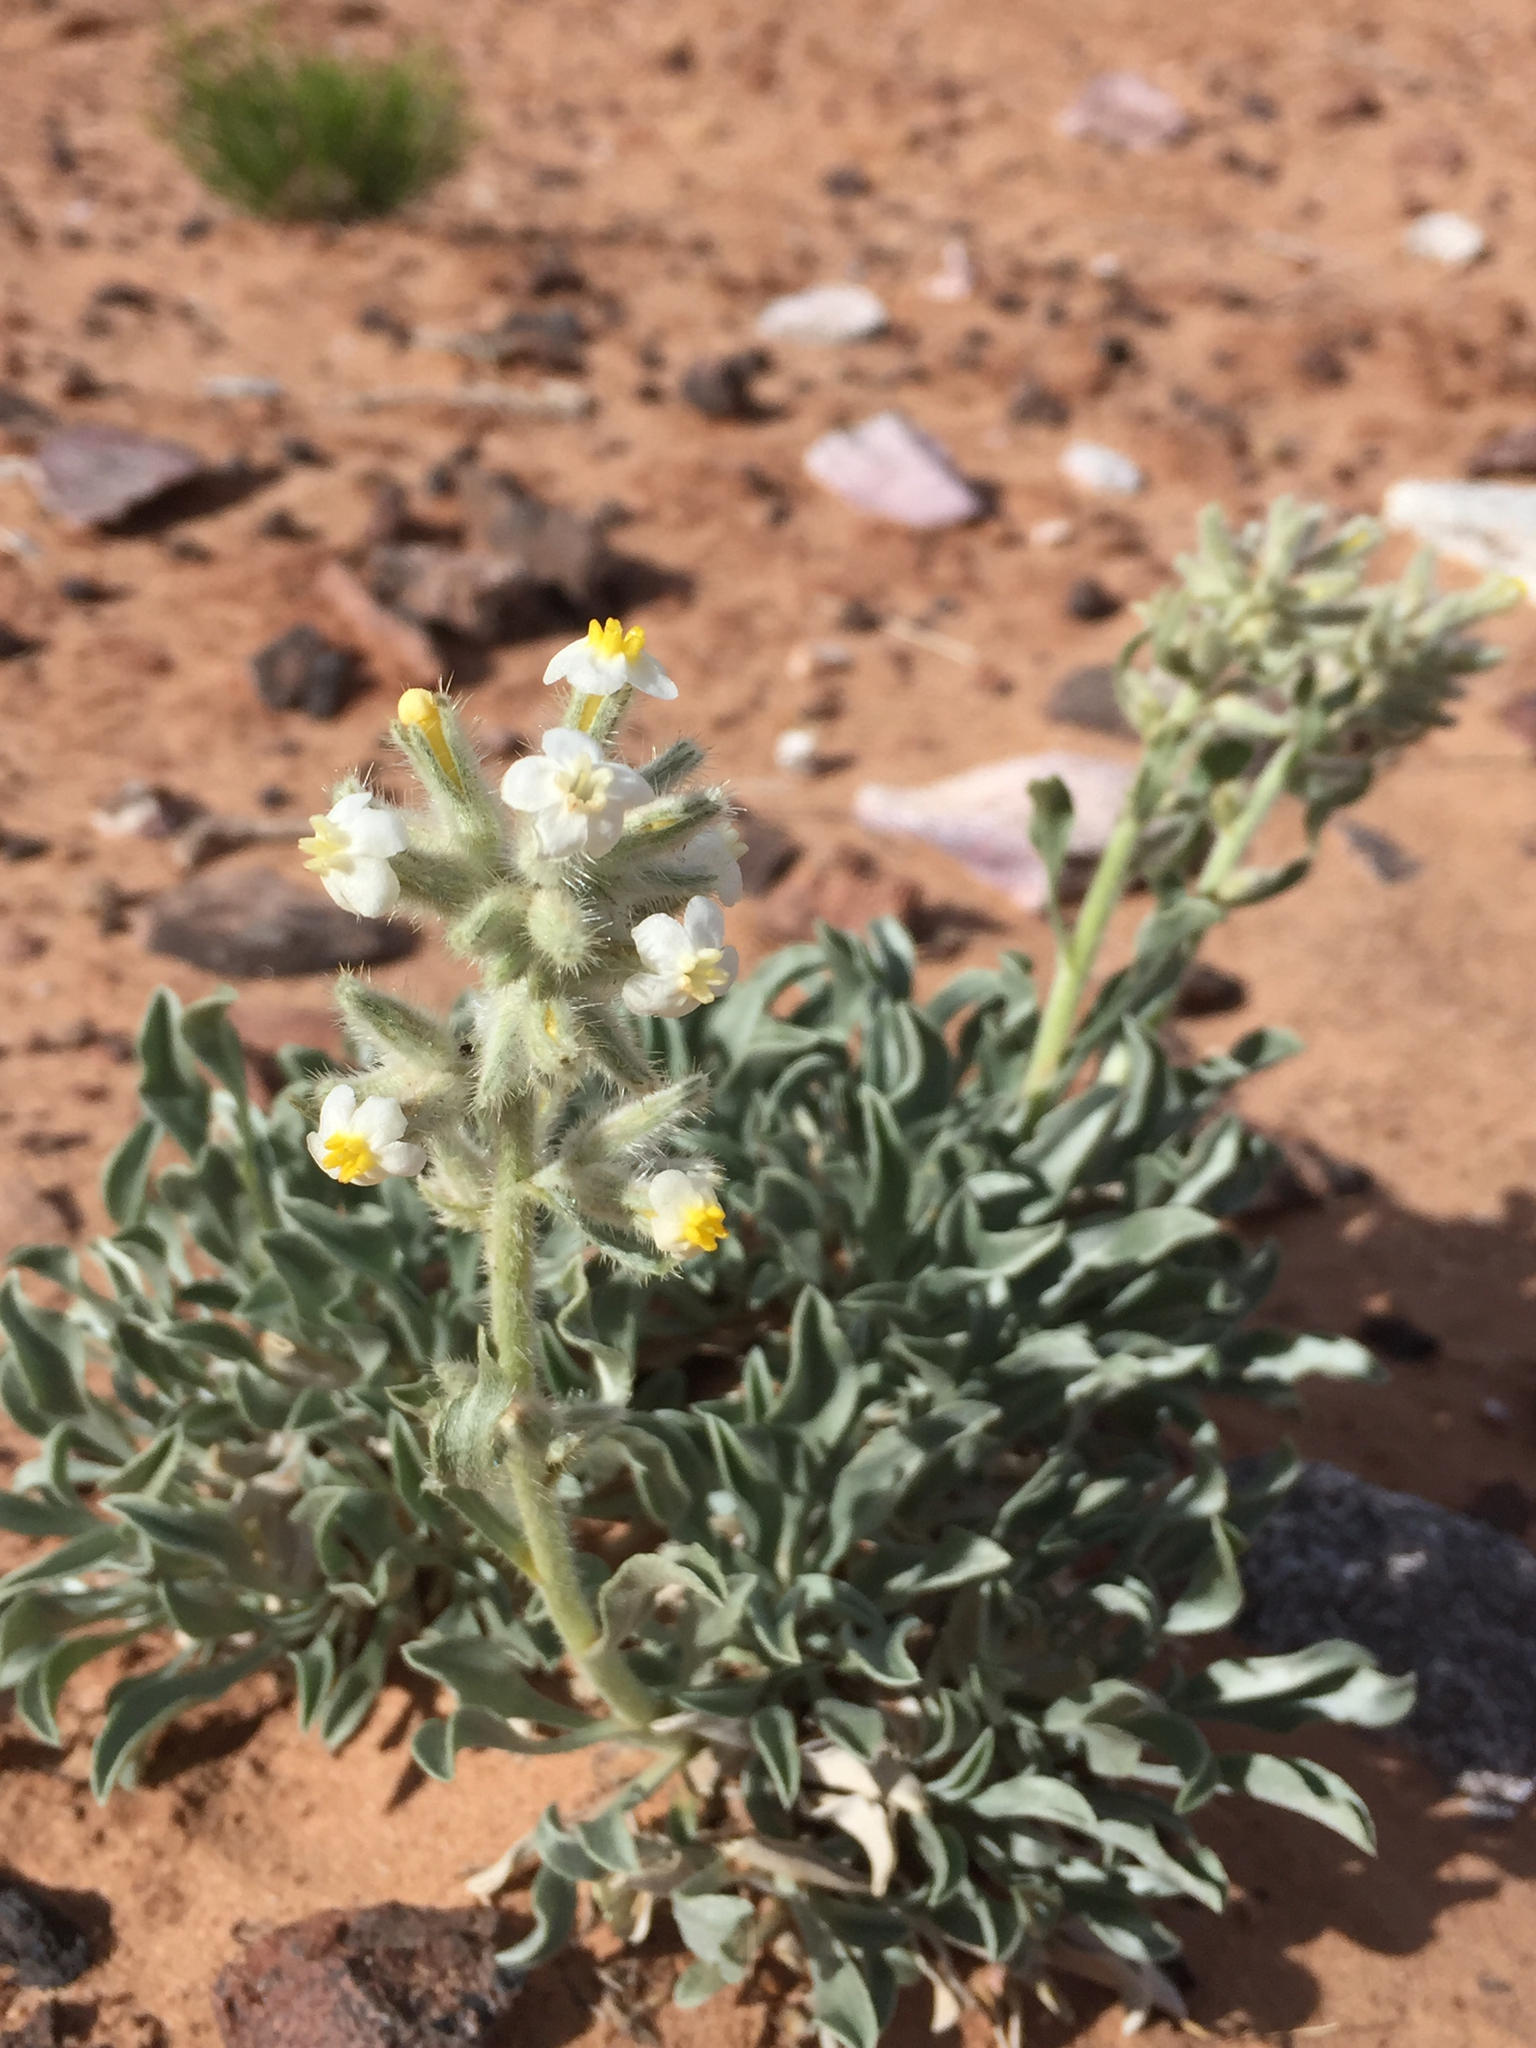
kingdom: Plantae
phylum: Tracheophyta
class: Magnoliopsida
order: Boraginales
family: Boraginaceae
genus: Oreocarya
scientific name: Oreocarya flavoculata
